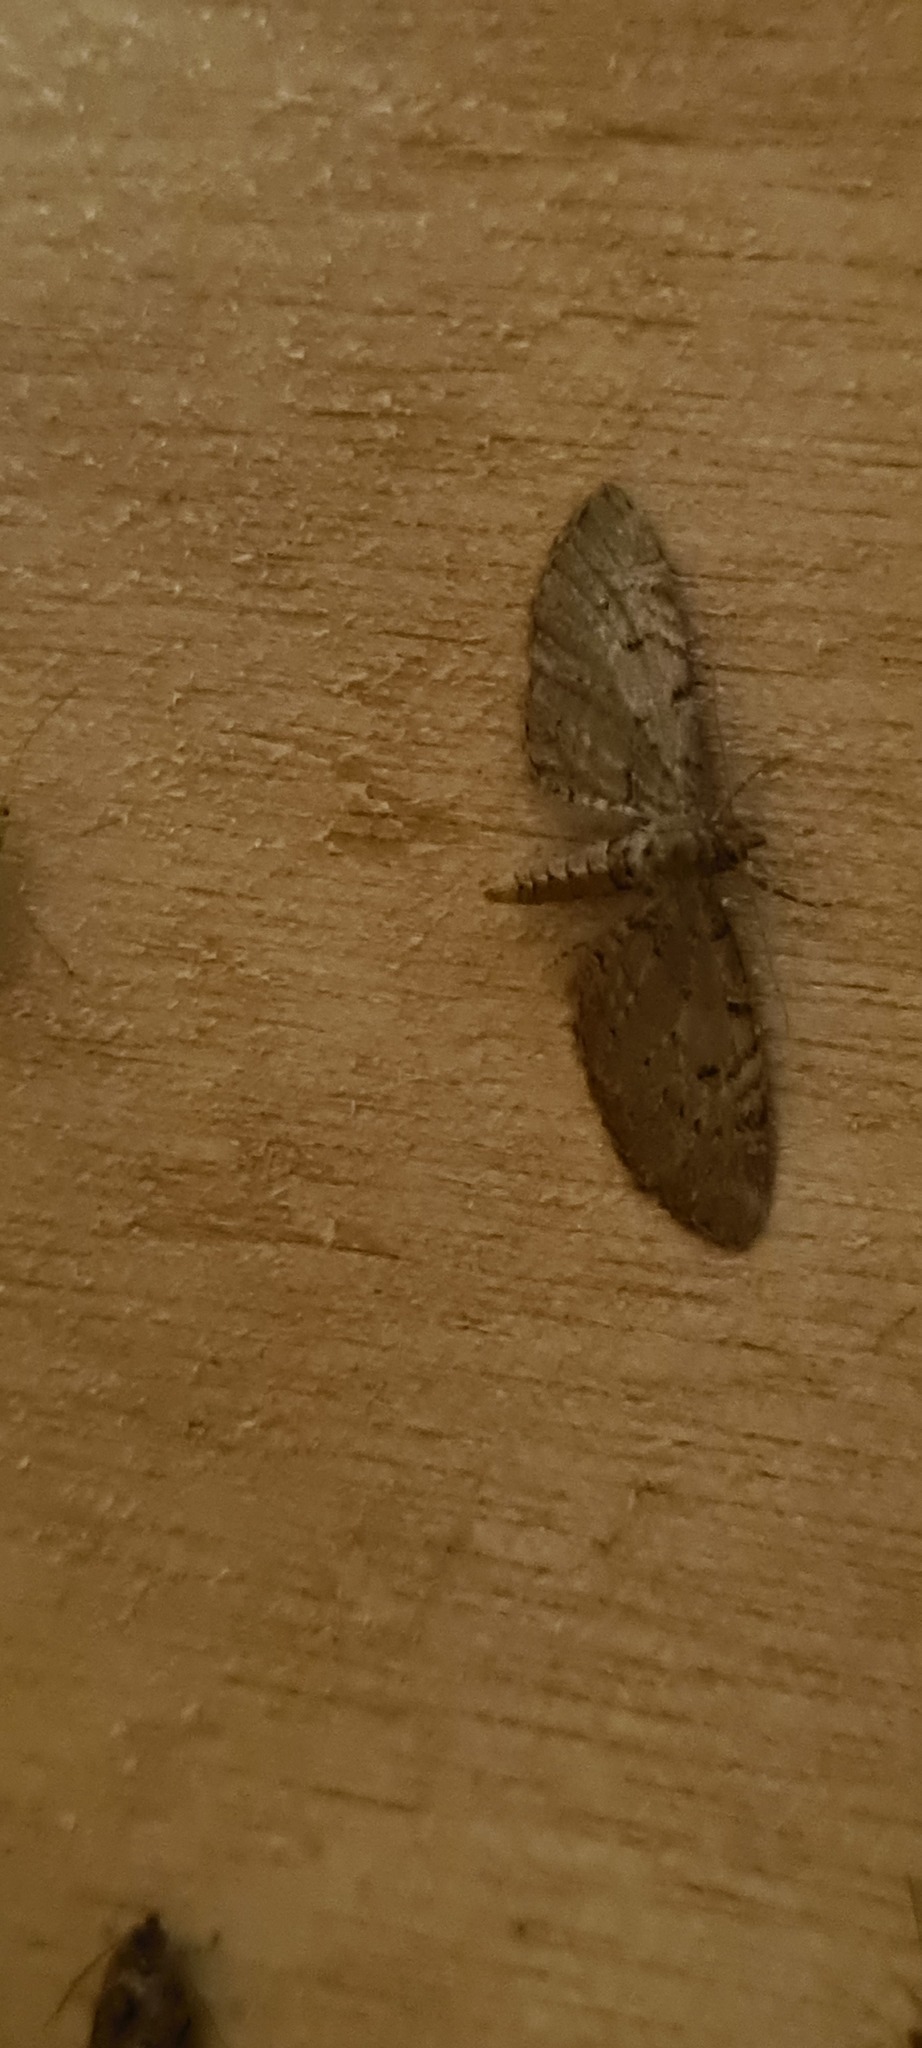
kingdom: Animalia
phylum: Arthropoda
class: Insecta
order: Lepidoptera
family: Geometridae
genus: Eupithecia
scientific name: Eupithecia intricata
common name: Freyers pug
